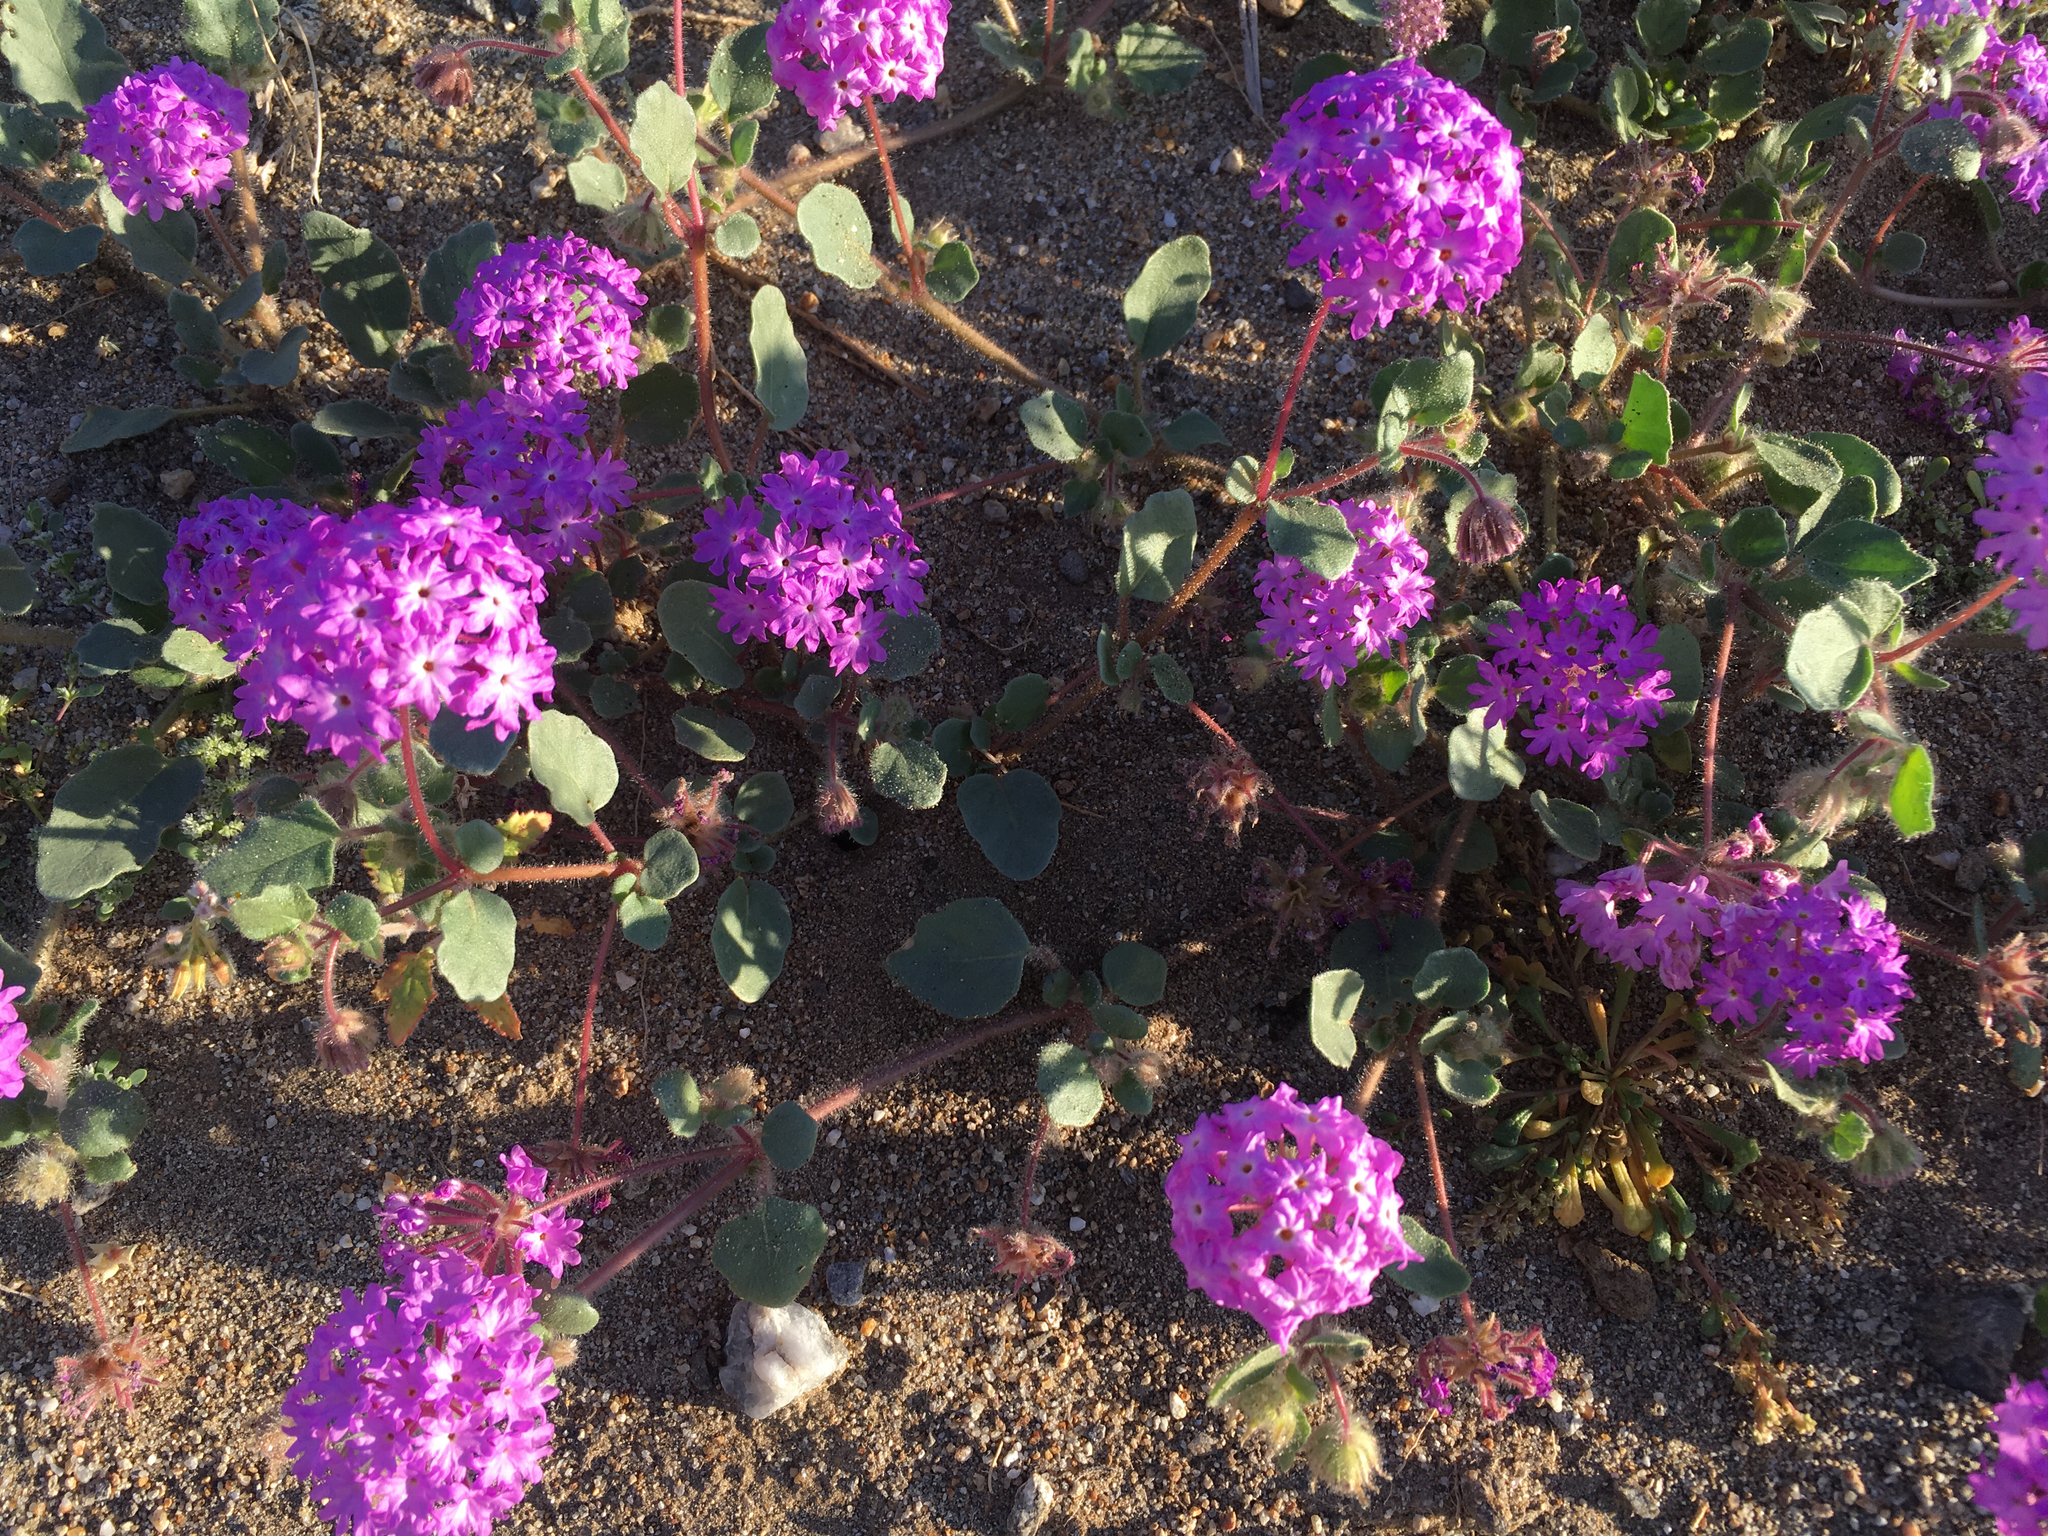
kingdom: Plantae
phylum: Tracheophyta
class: Magnoliopsida
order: Caryophyllales
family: Nyctaginaceae
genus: Abronia
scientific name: Abronia villosa
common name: Desert sand-verbena
